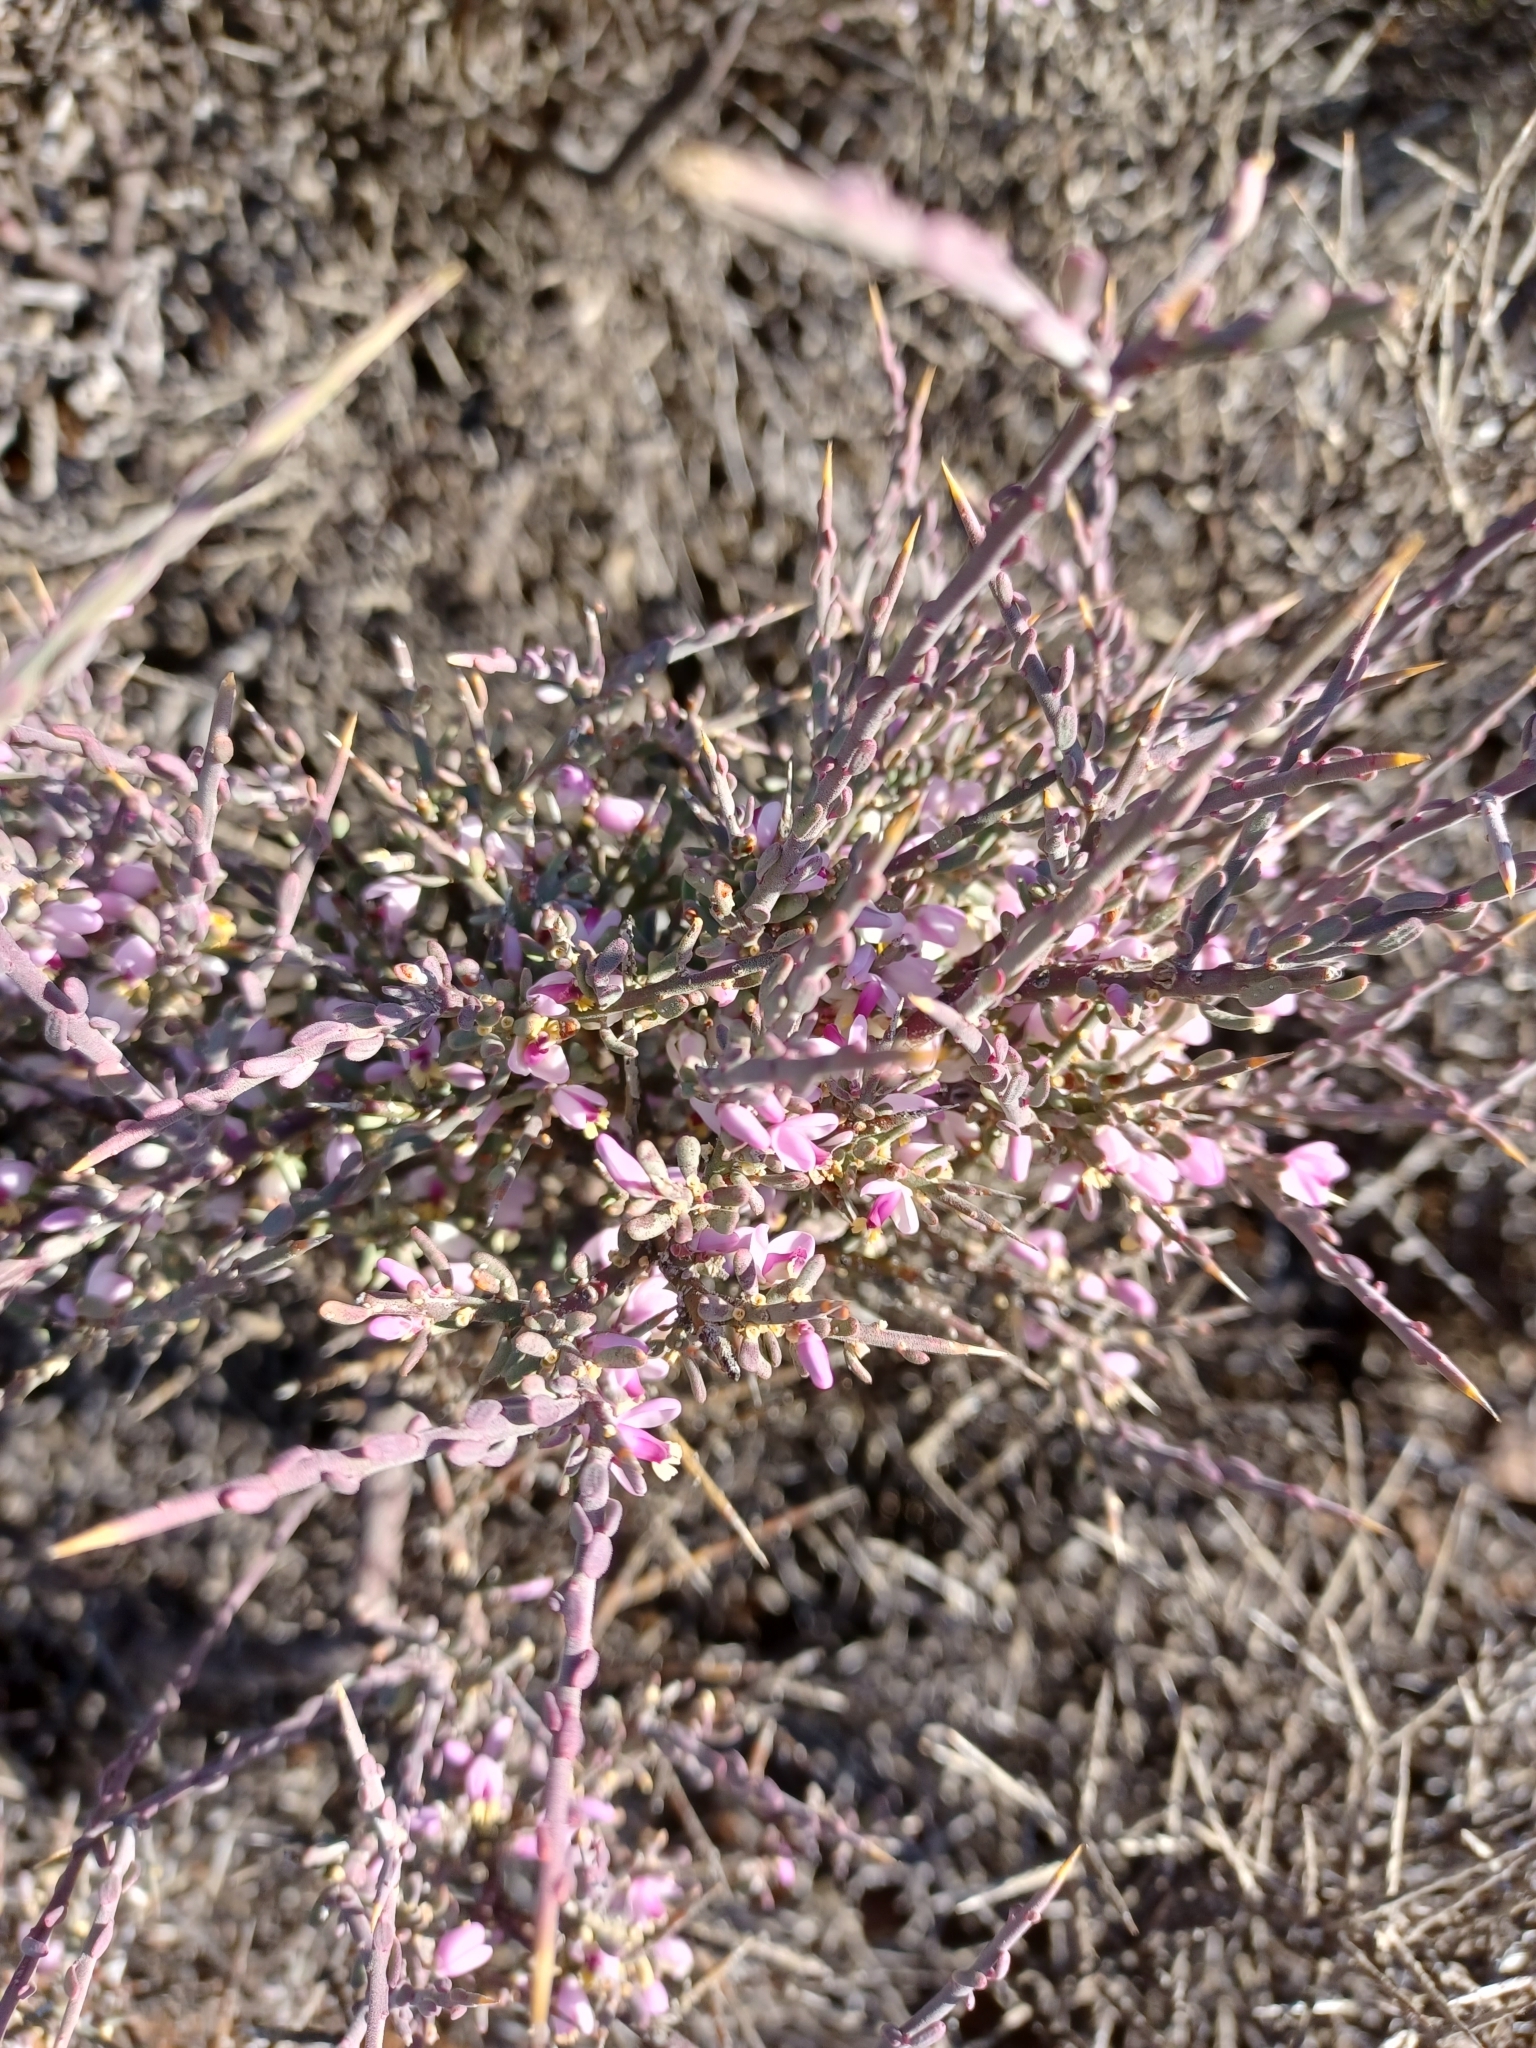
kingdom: Plantae
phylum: Tracheophyta
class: Magnoliopsida
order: Fabales
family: Polygalaceae
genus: Muraltia
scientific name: Muraltia spinosa
